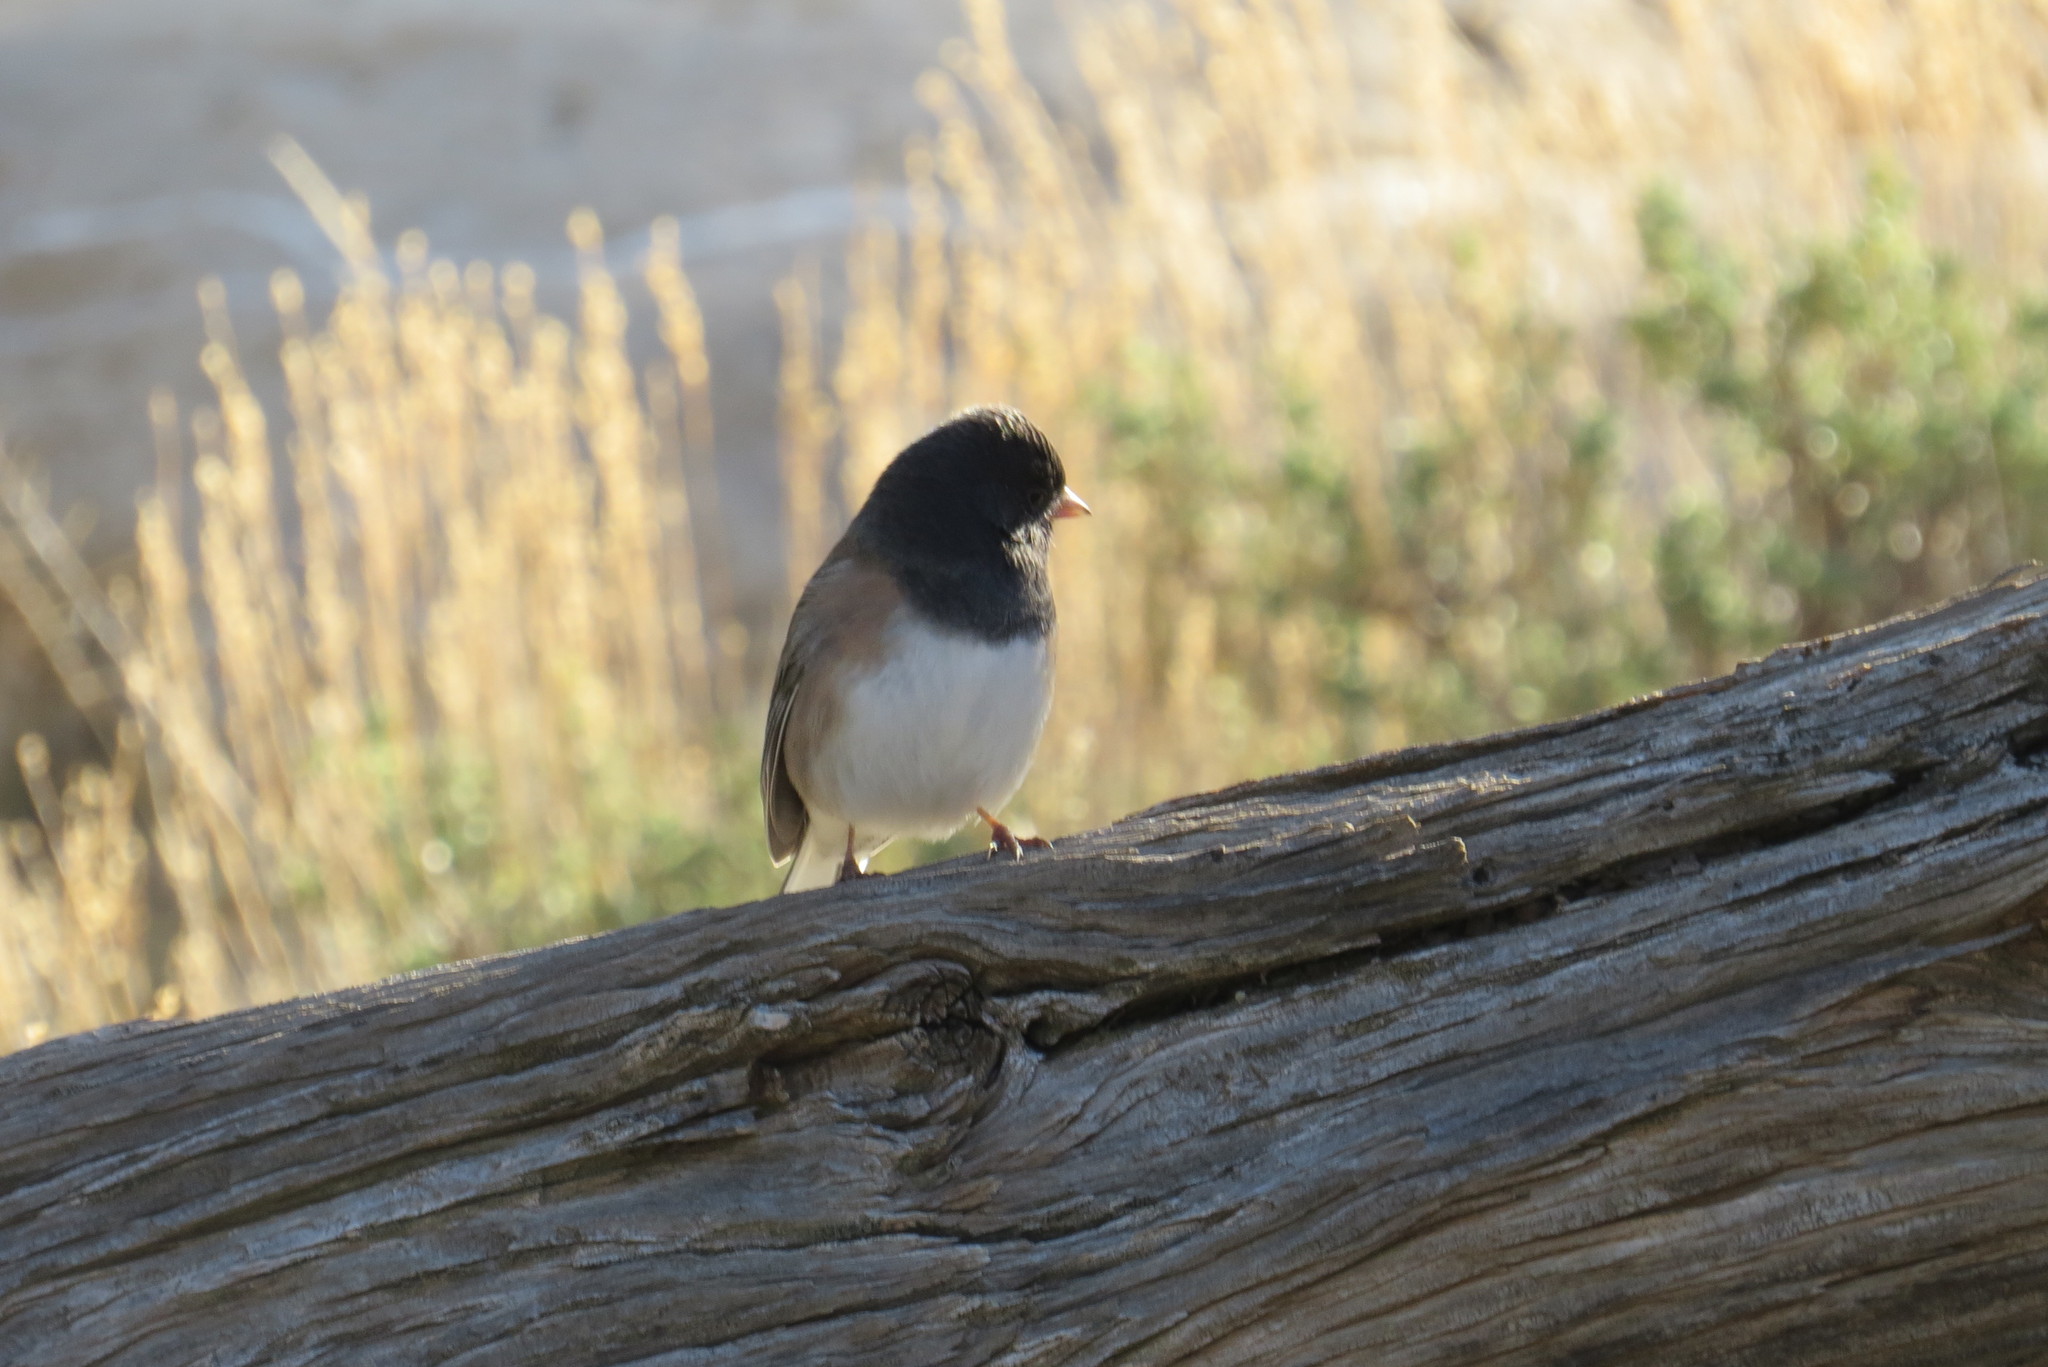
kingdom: Animalia
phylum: Chordata
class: Aves
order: Passeriformes
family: Passerellidae
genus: Junco
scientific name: Junco hyemalis
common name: Dark-eyed junco
